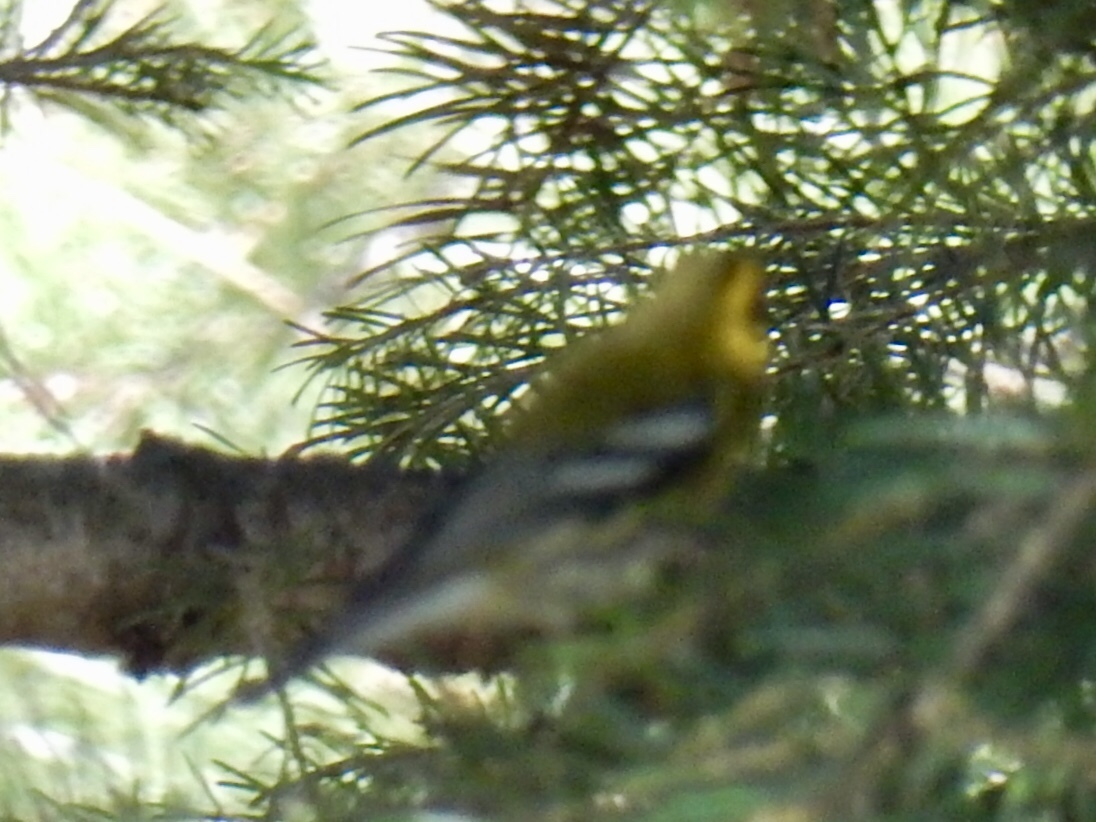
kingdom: Animalia
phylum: Chordata
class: Aves
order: Passeriformes
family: Parulidae
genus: Setophaga
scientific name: Setophaga townsendi
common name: Townsend's warbler
